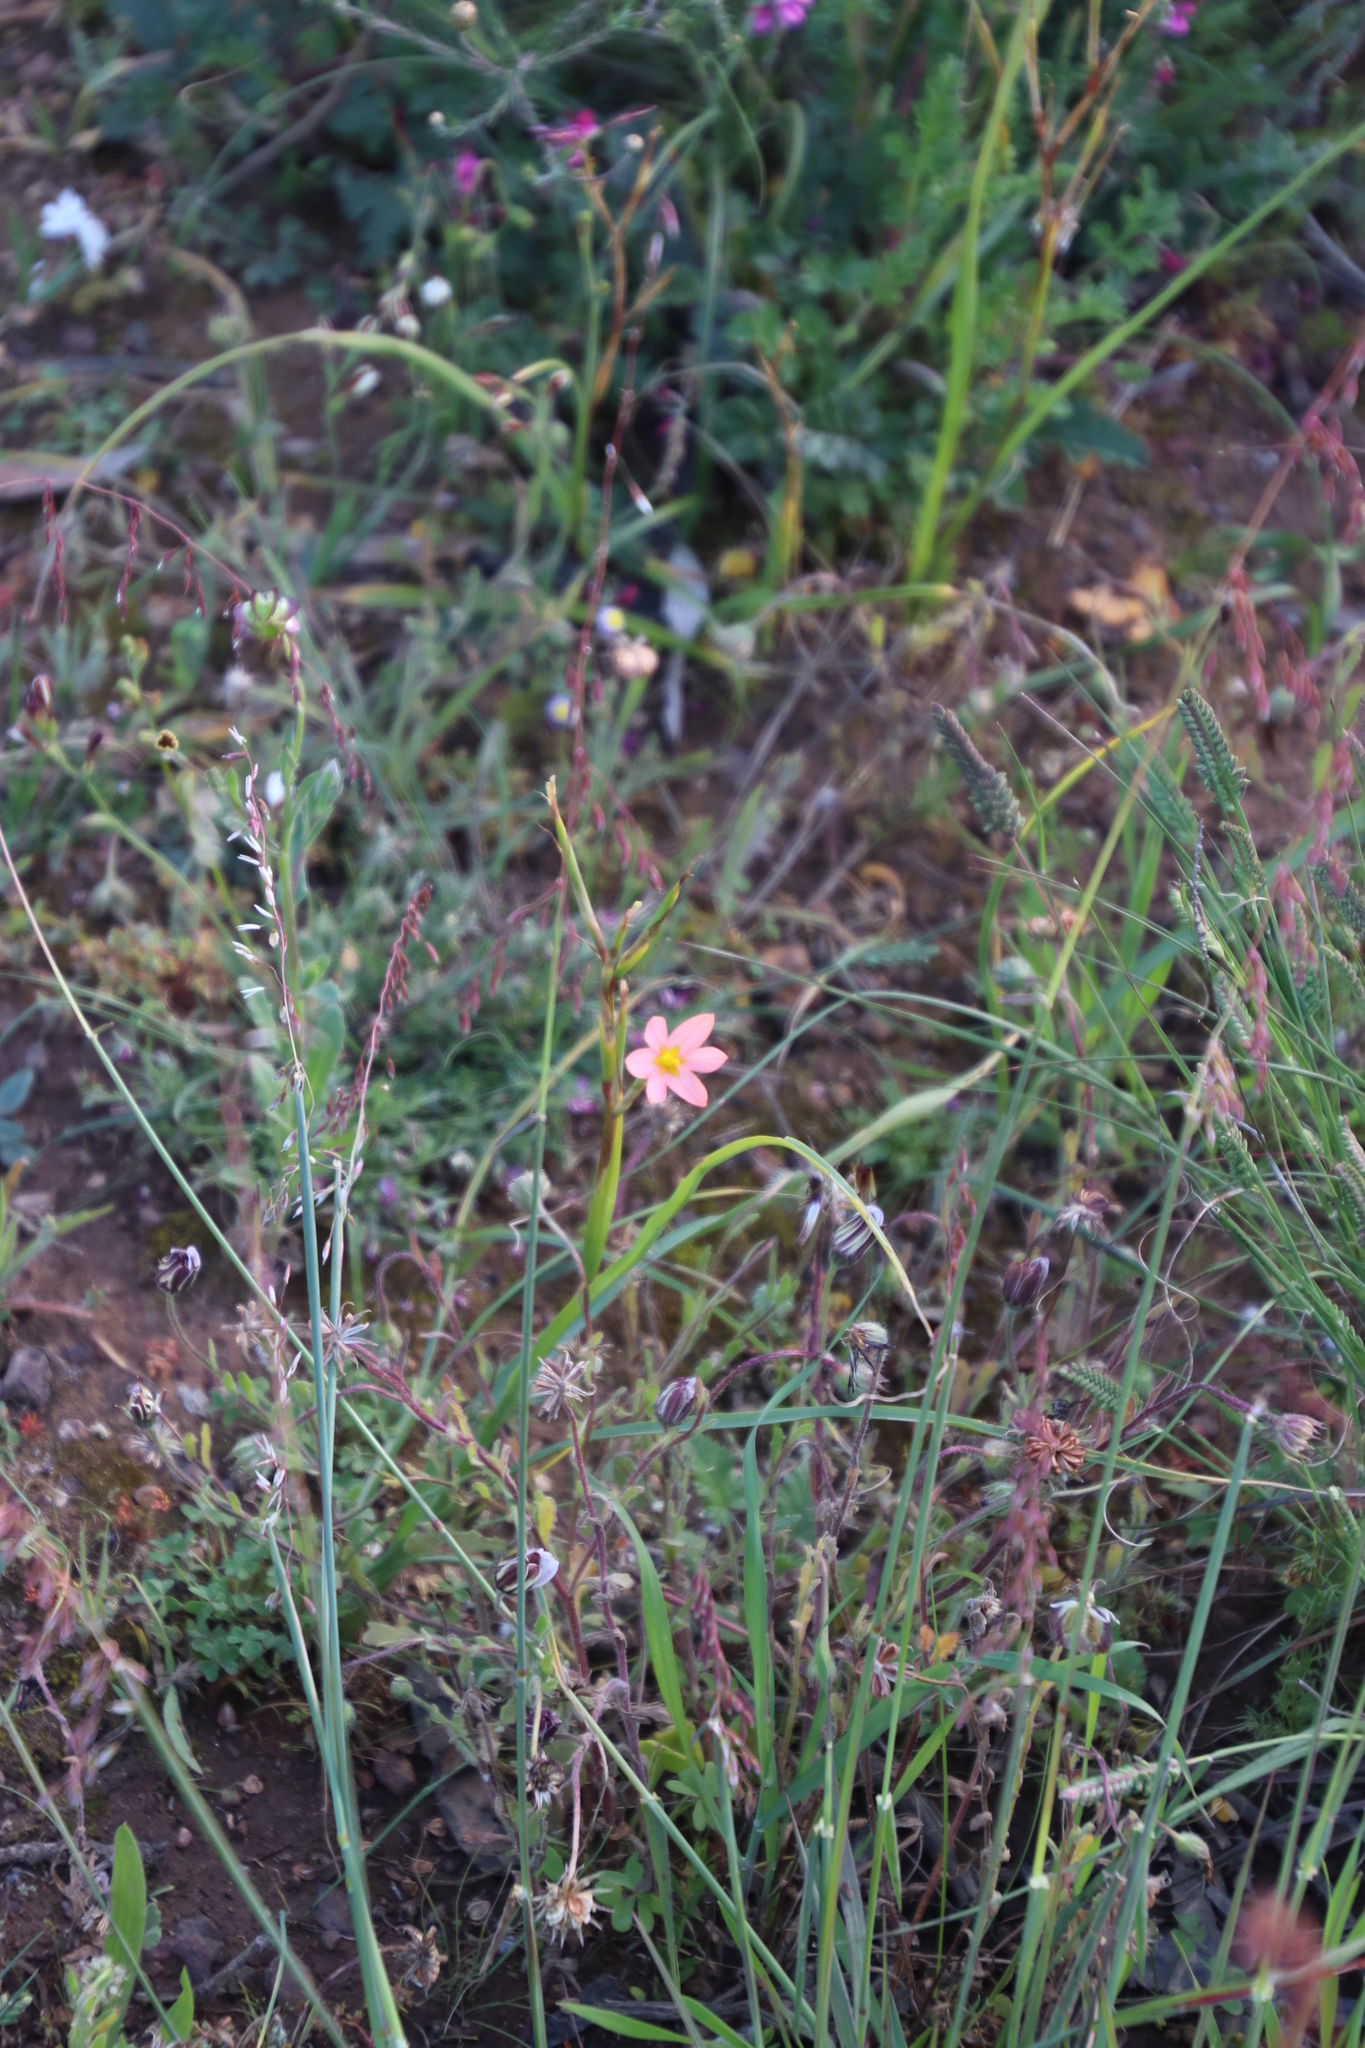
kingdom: Plantae
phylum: Tracheophyta
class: Liliopsida
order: Asparagales
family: Iridaceae
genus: Moraea
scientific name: Moraea miniata
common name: Two-leaf cape-tulip
